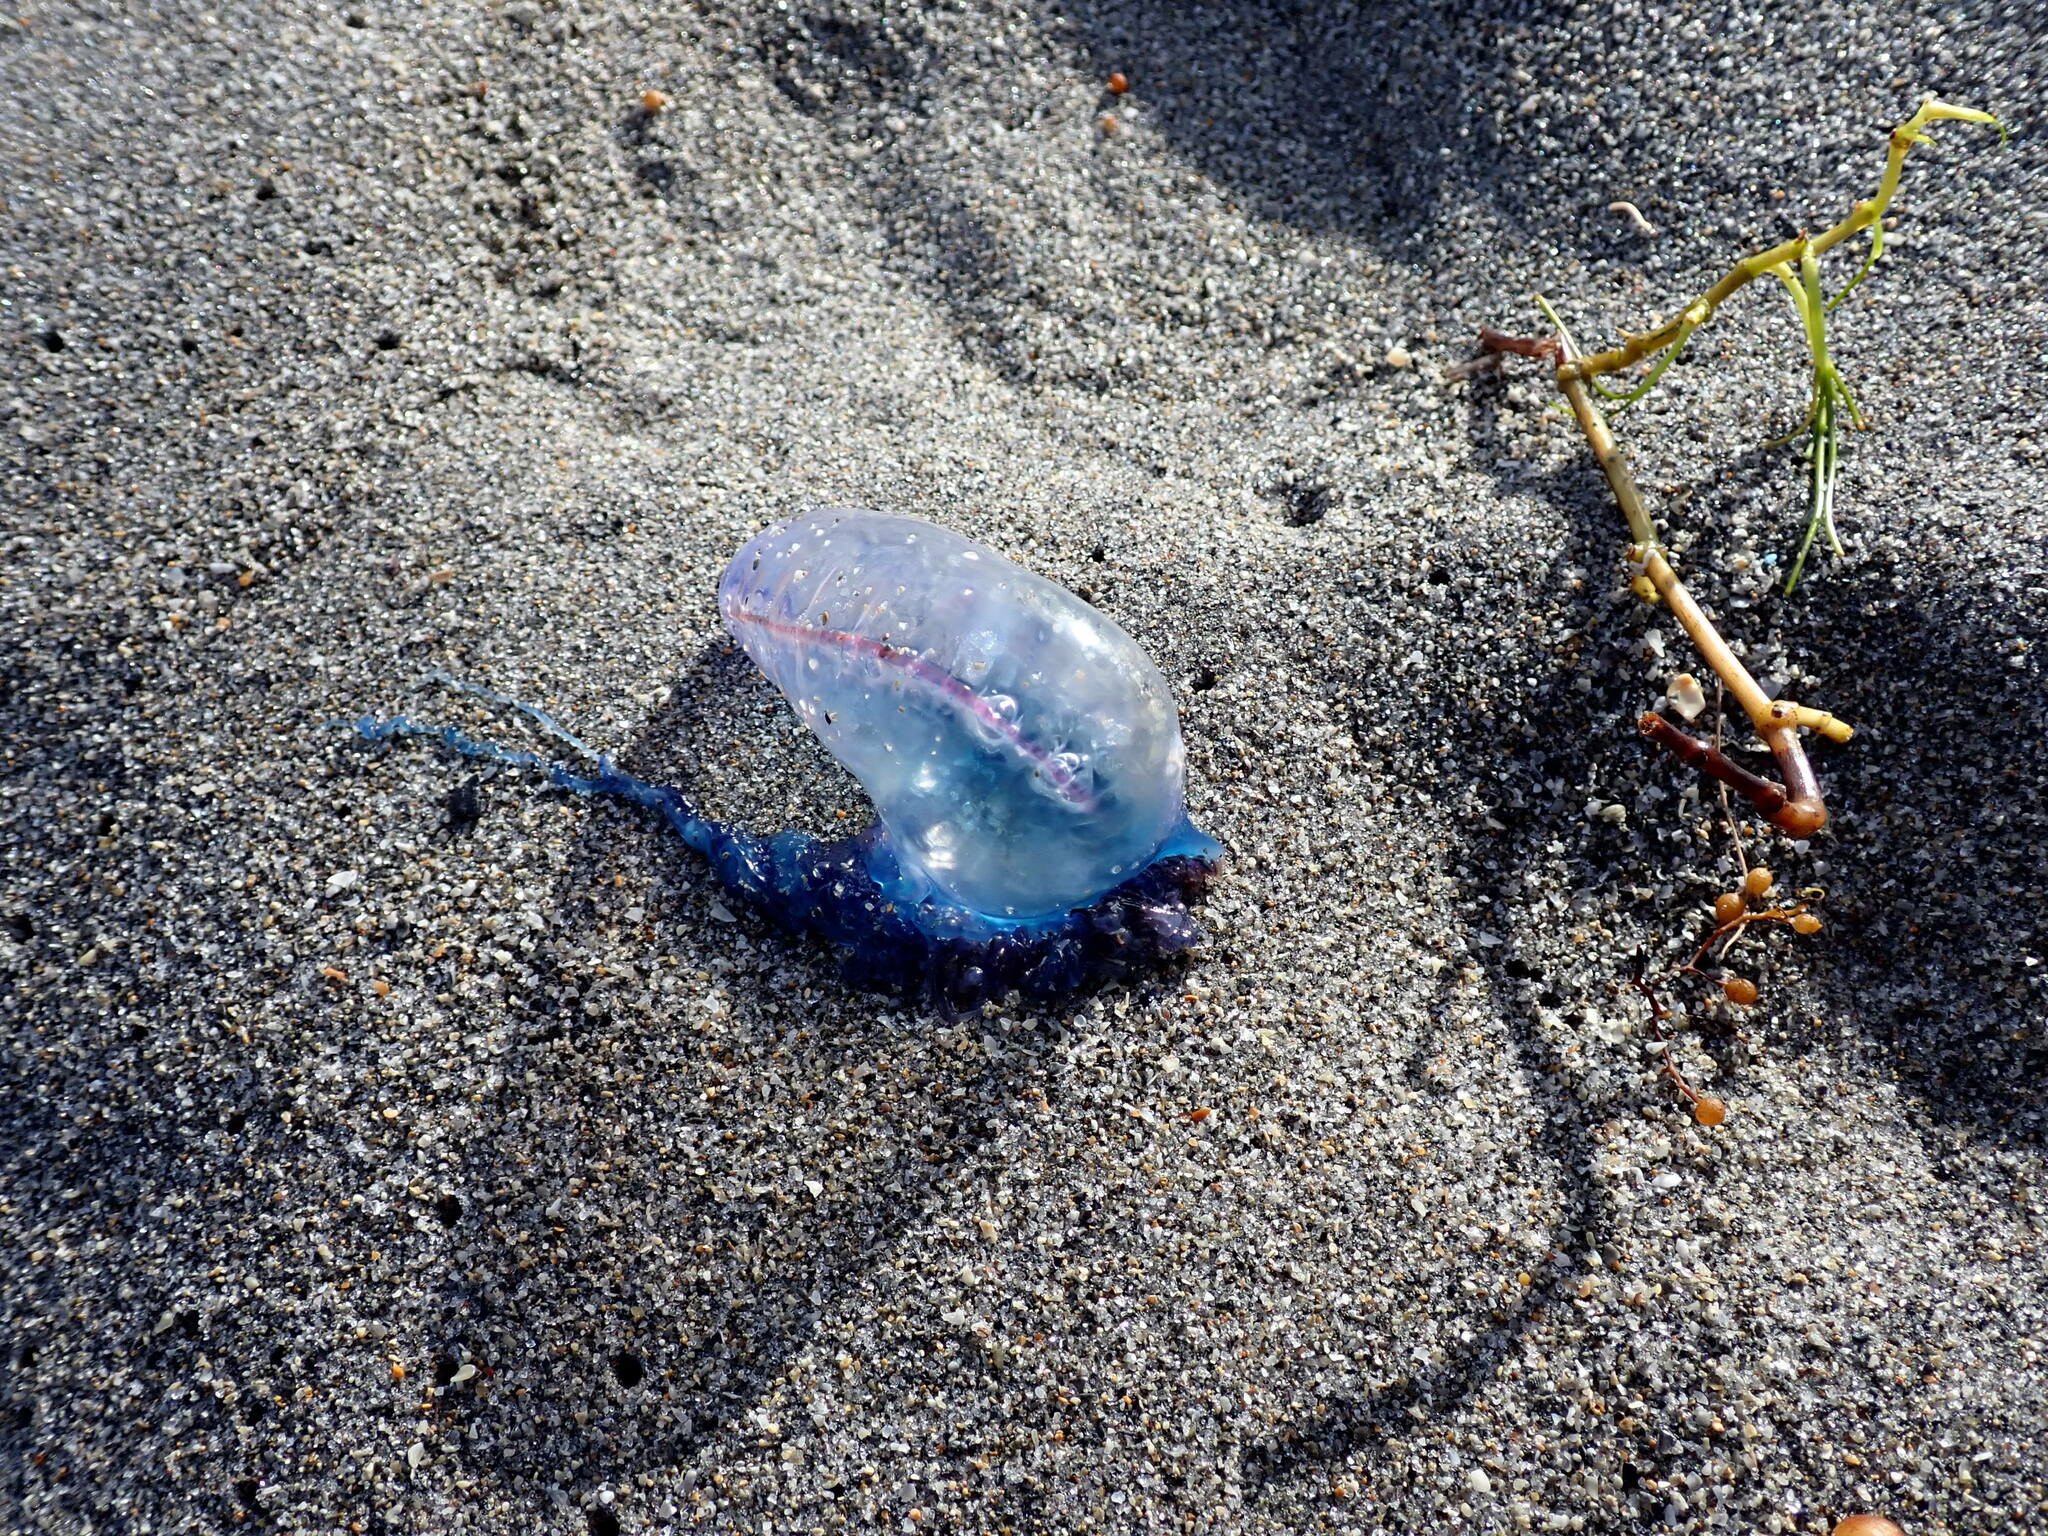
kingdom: Animalia
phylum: Cnidaria
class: Hydrozoa
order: Siphonophorae
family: Physaliidae
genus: Physalia
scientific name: Physalia physalis
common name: Portuguese man-of-war
